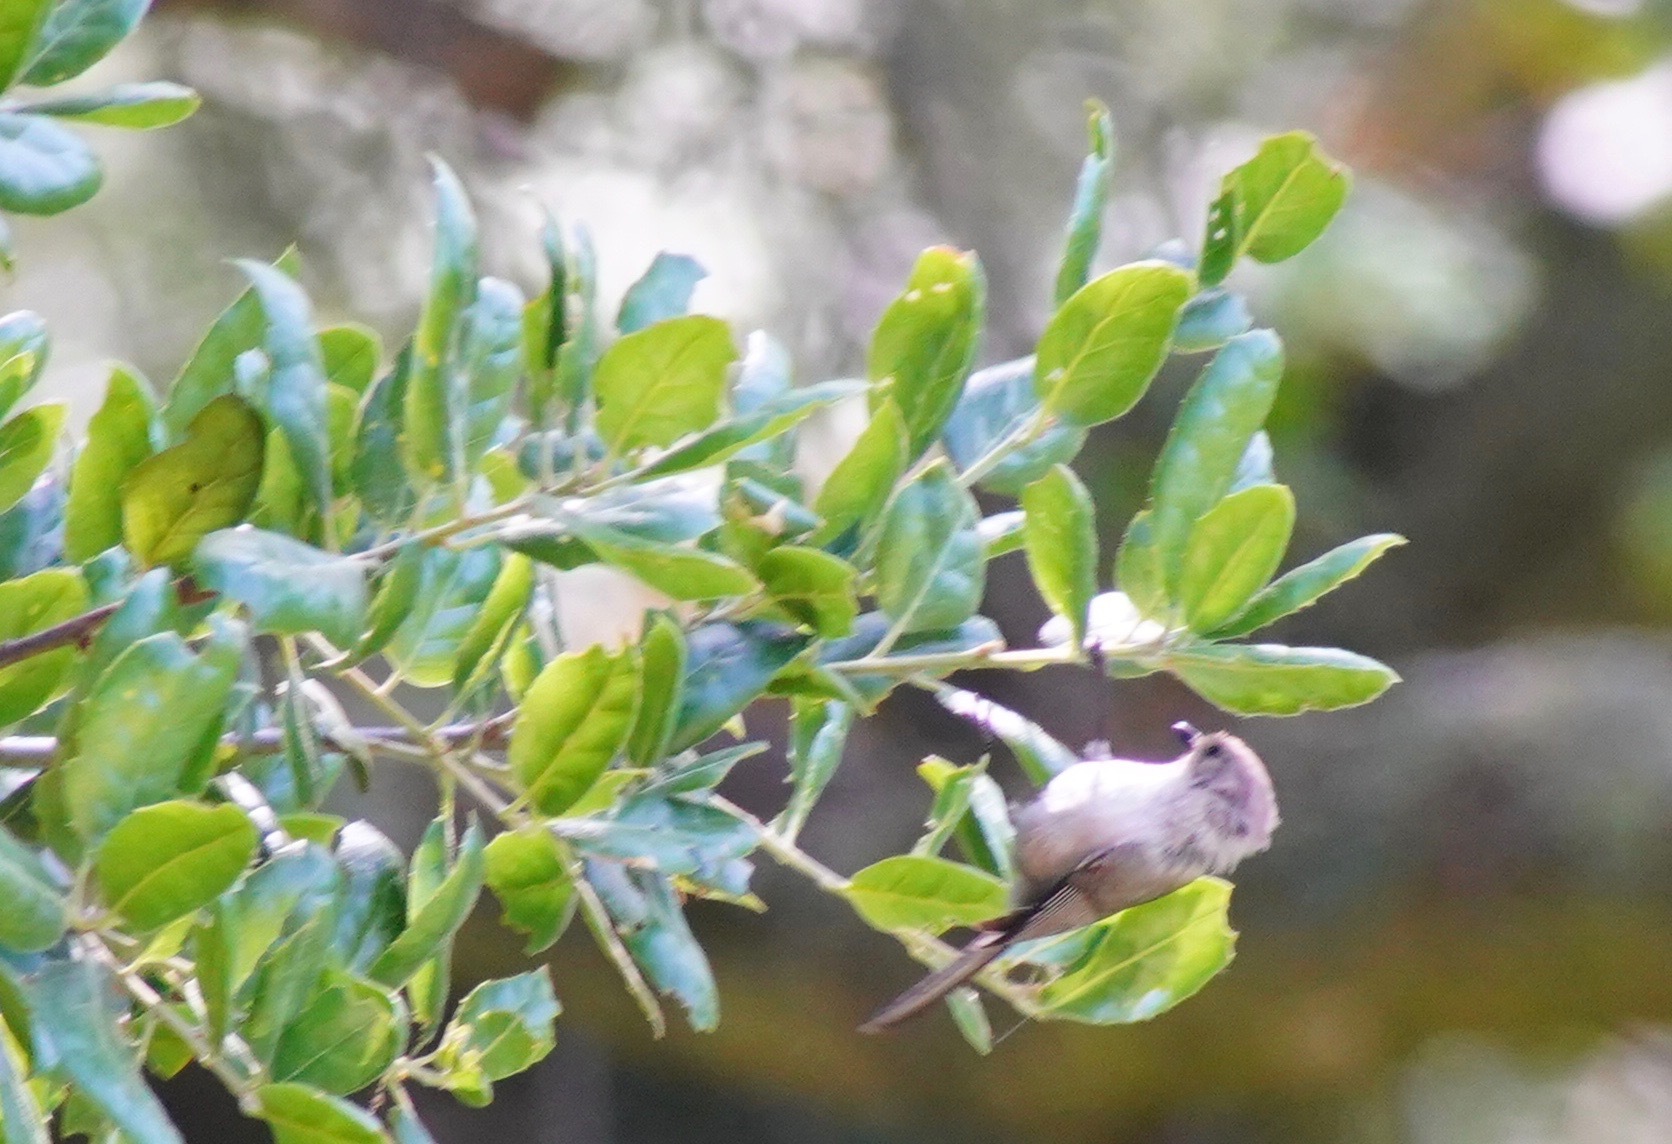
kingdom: Animalia
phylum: Chordata
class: Aves
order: Passeriformes
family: Aegithalidae
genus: Psaltriparus
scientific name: Psaltriparus minimus
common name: American bushtit
